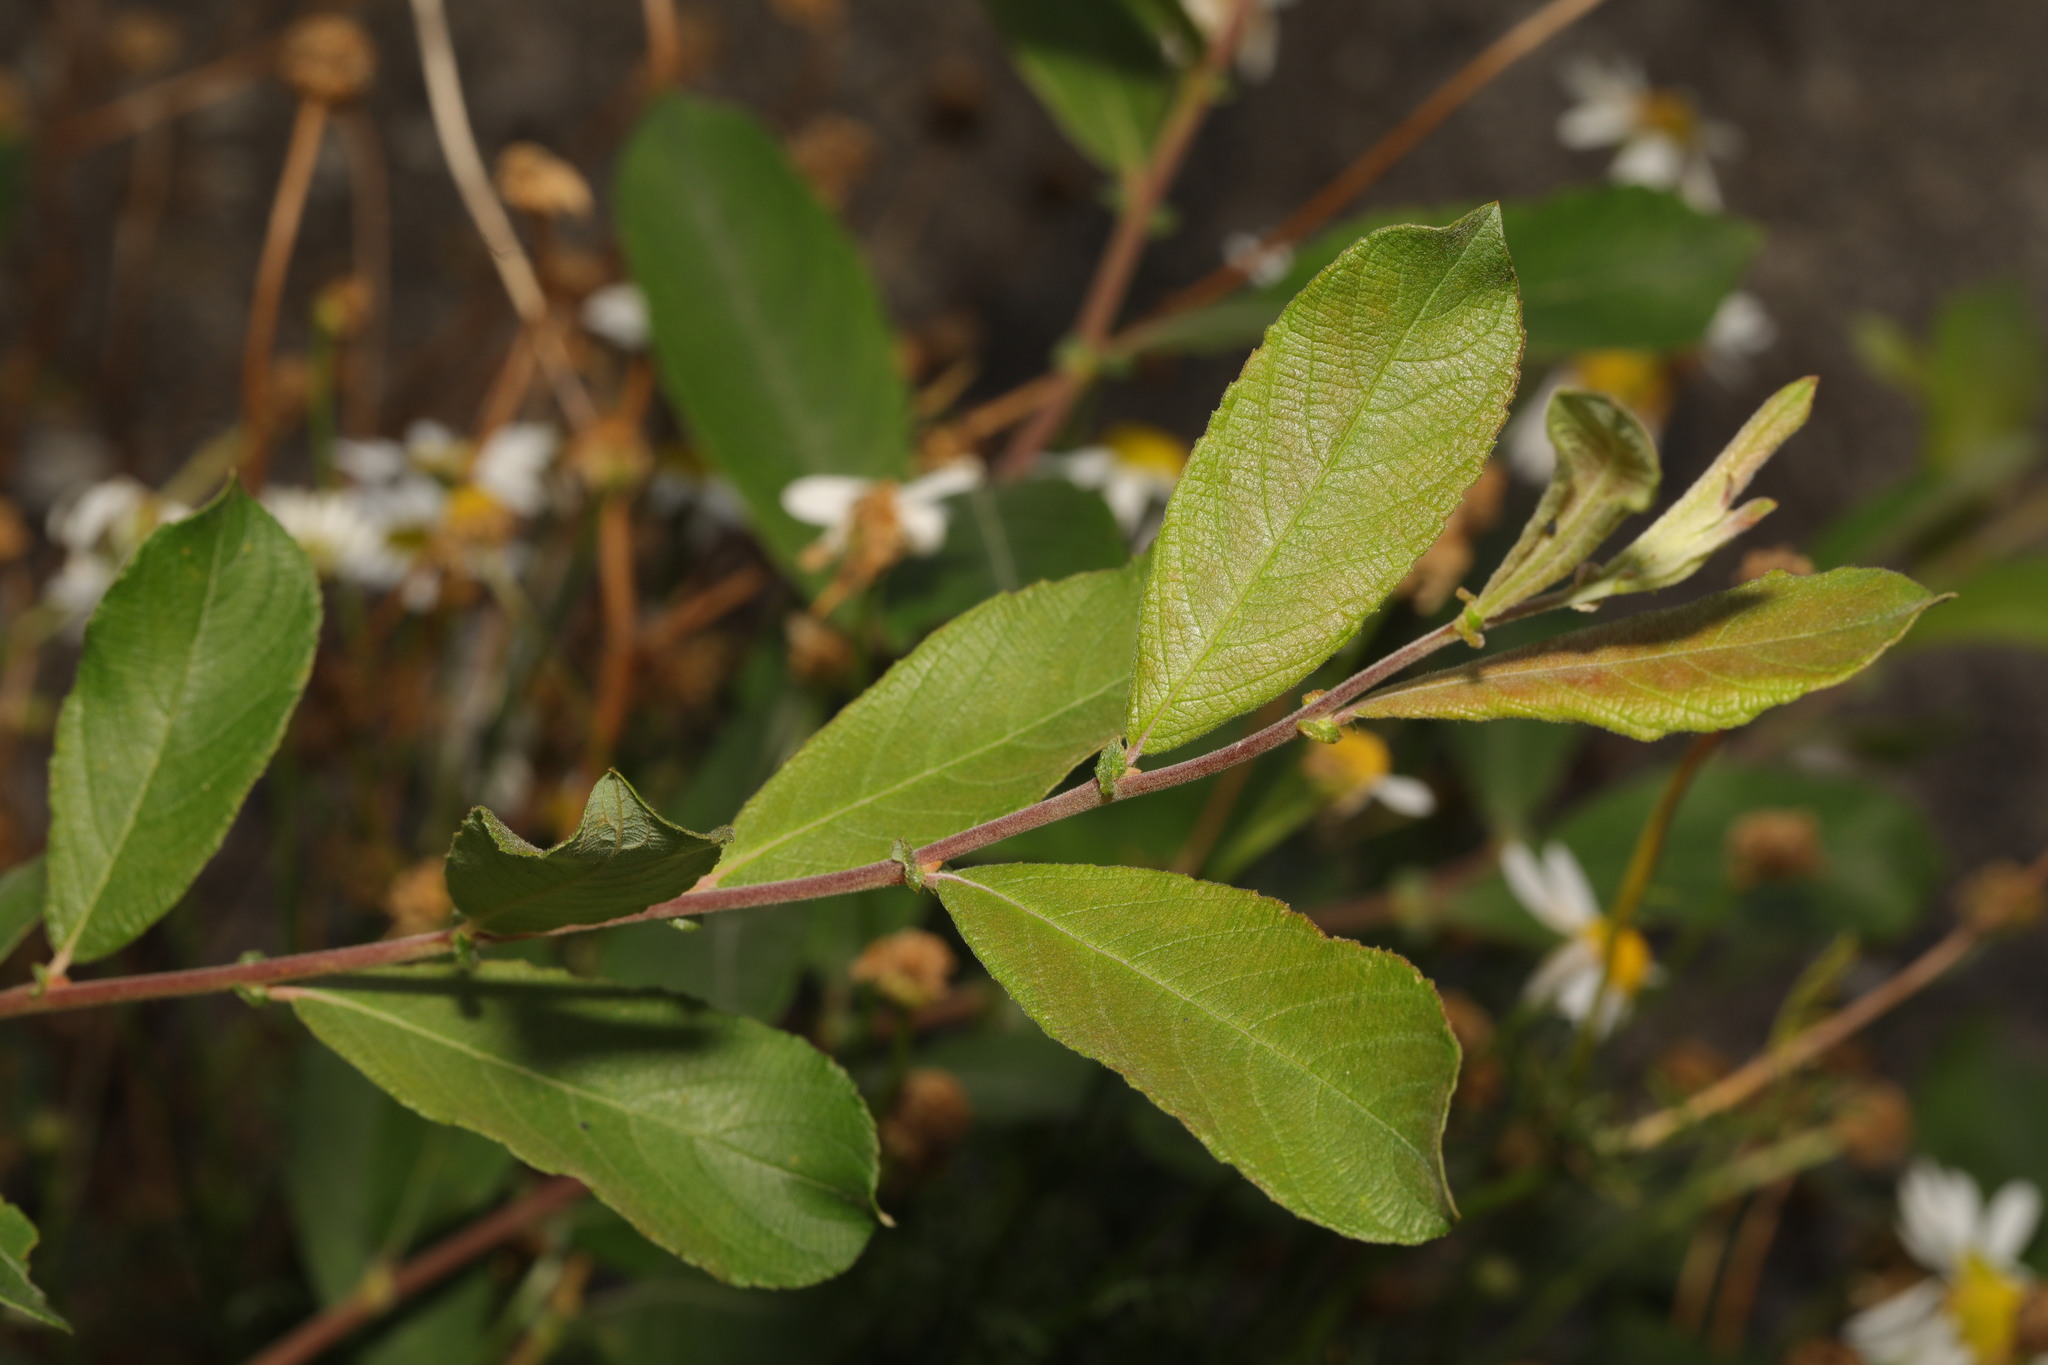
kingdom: Plantae
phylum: Tracheophyta
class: Magnoliopsida
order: Malpighiales
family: Salicaceae
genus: Salix
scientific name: Salix cinerea
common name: Common sallow
